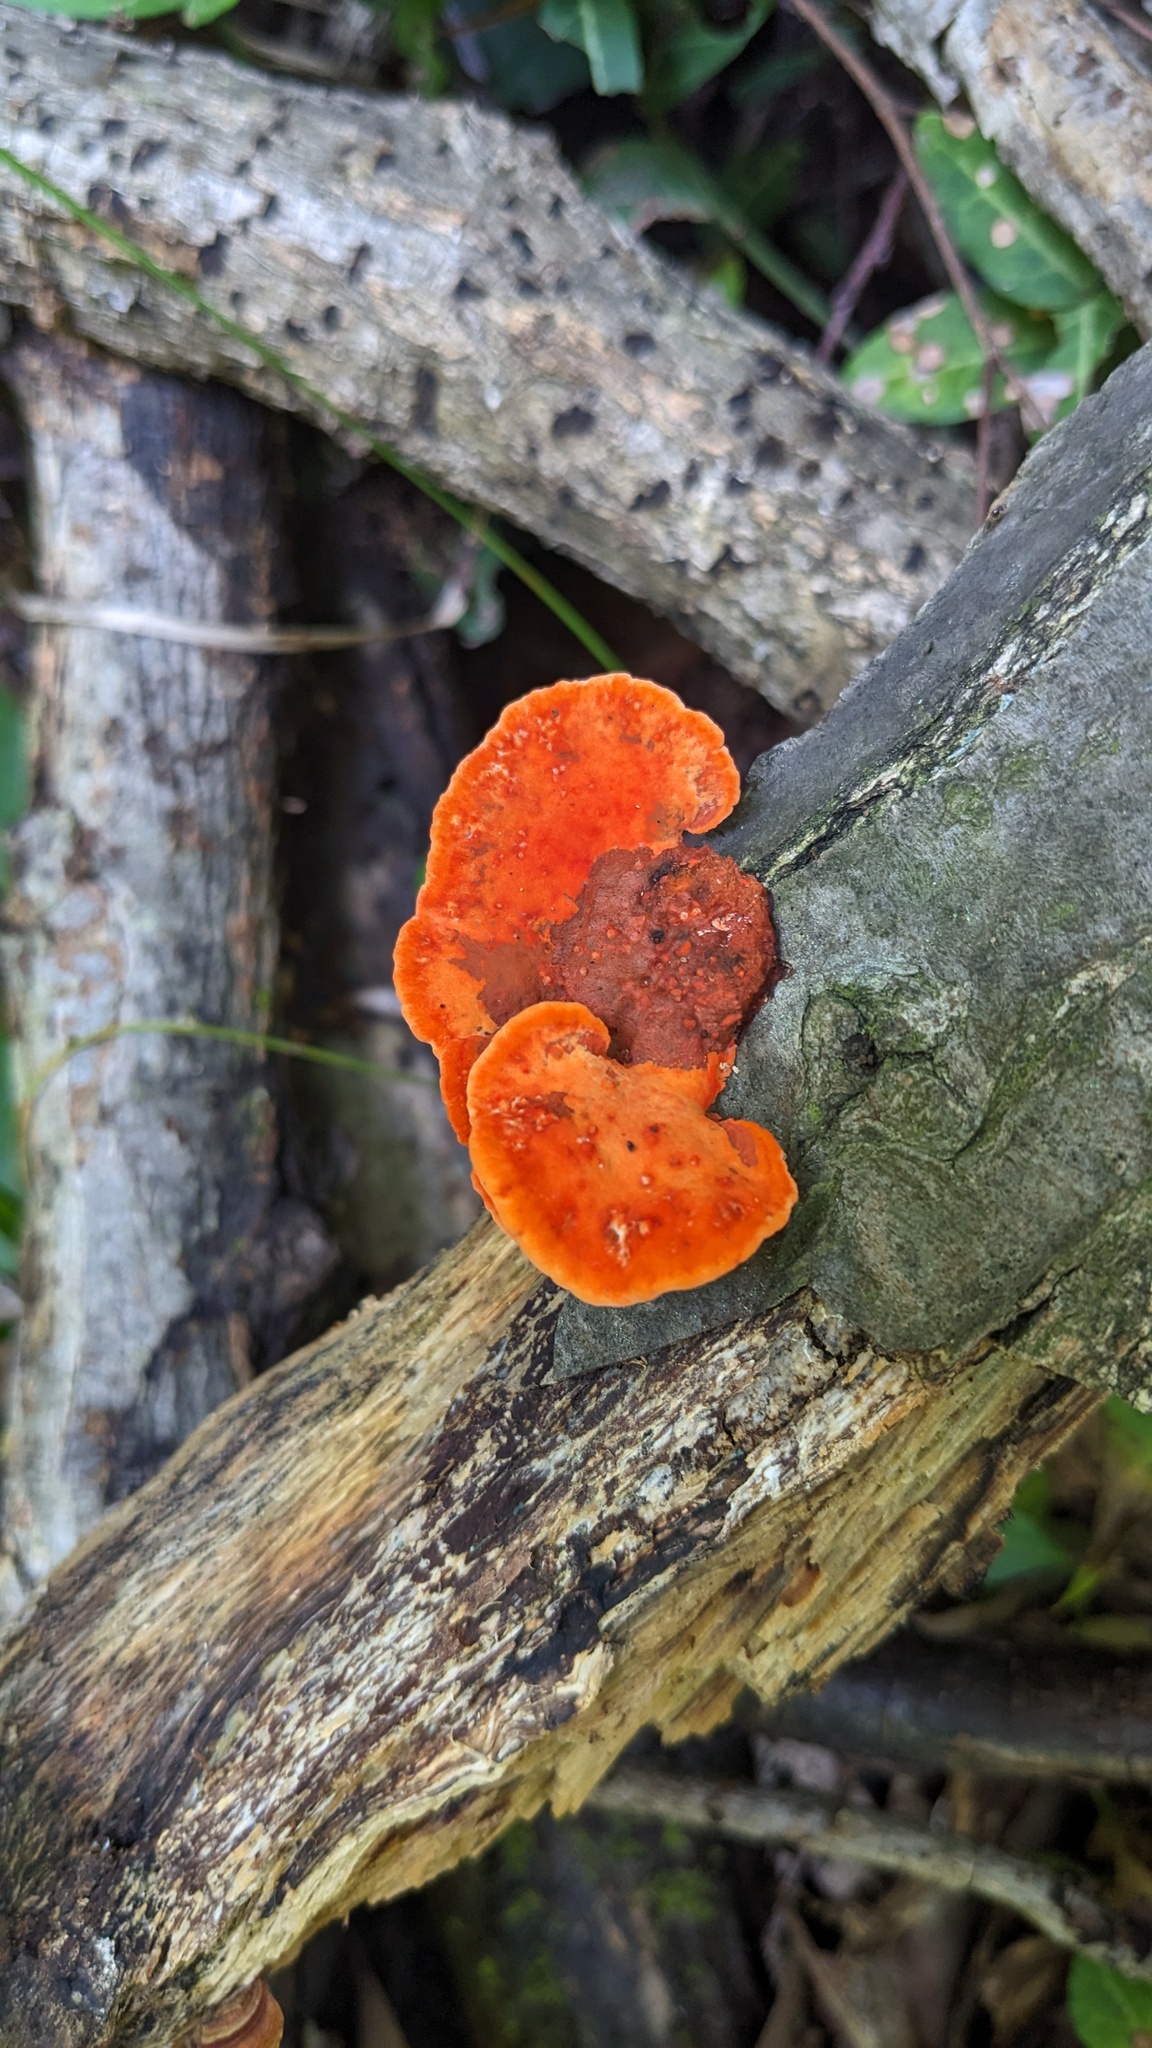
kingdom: Fungi
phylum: Basidiomycota
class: Agaricomycetes
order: Polyporales
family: Polyporaceae
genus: Trametes
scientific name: Trametes coccinea
